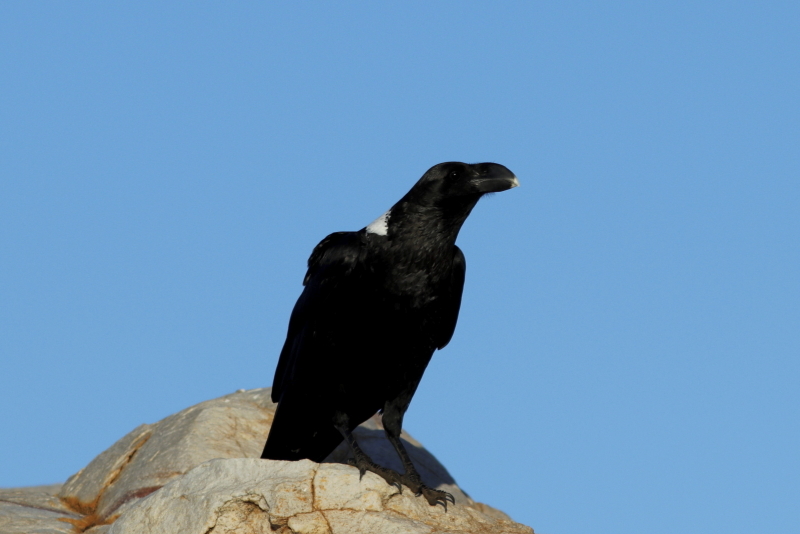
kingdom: Animalia
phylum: Chordata
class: Aves
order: Passeriformes
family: Corvidae
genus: Corvus
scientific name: Corvus albicollis
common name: White-necked raven
